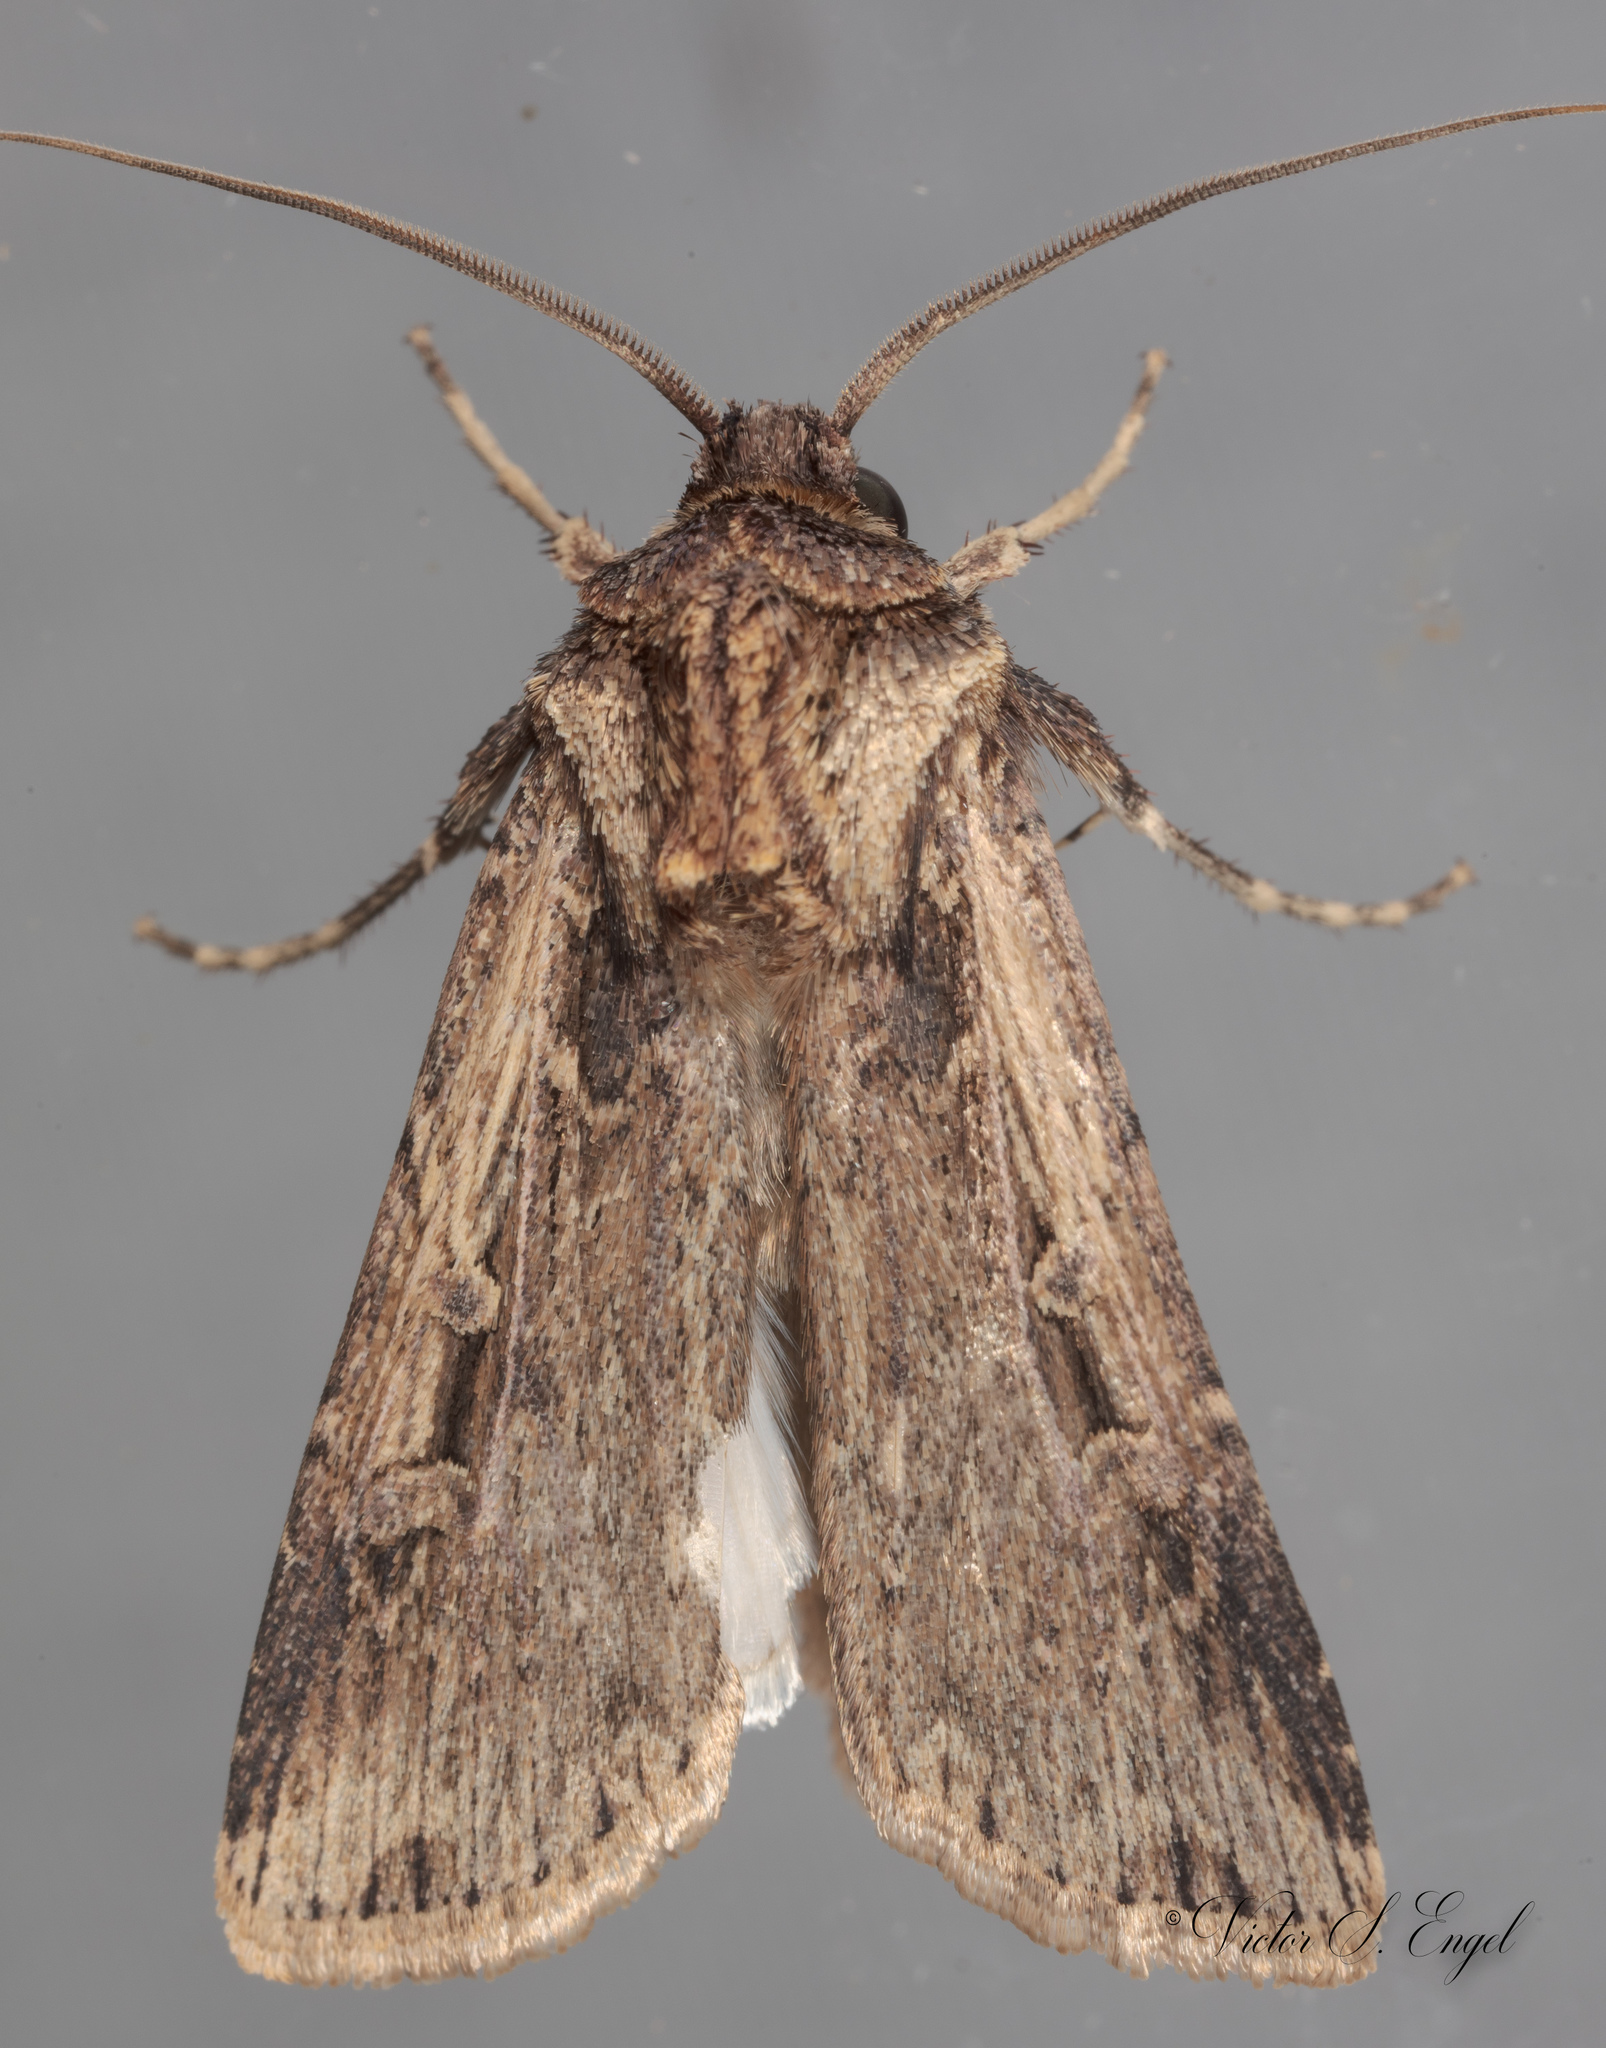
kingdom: Animalia
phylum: Arthropoda
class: Insecta
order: Lepidoptera
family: Noctuidae
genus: Feltia
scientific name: Feltia subterranea
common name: Granulate cutworm
